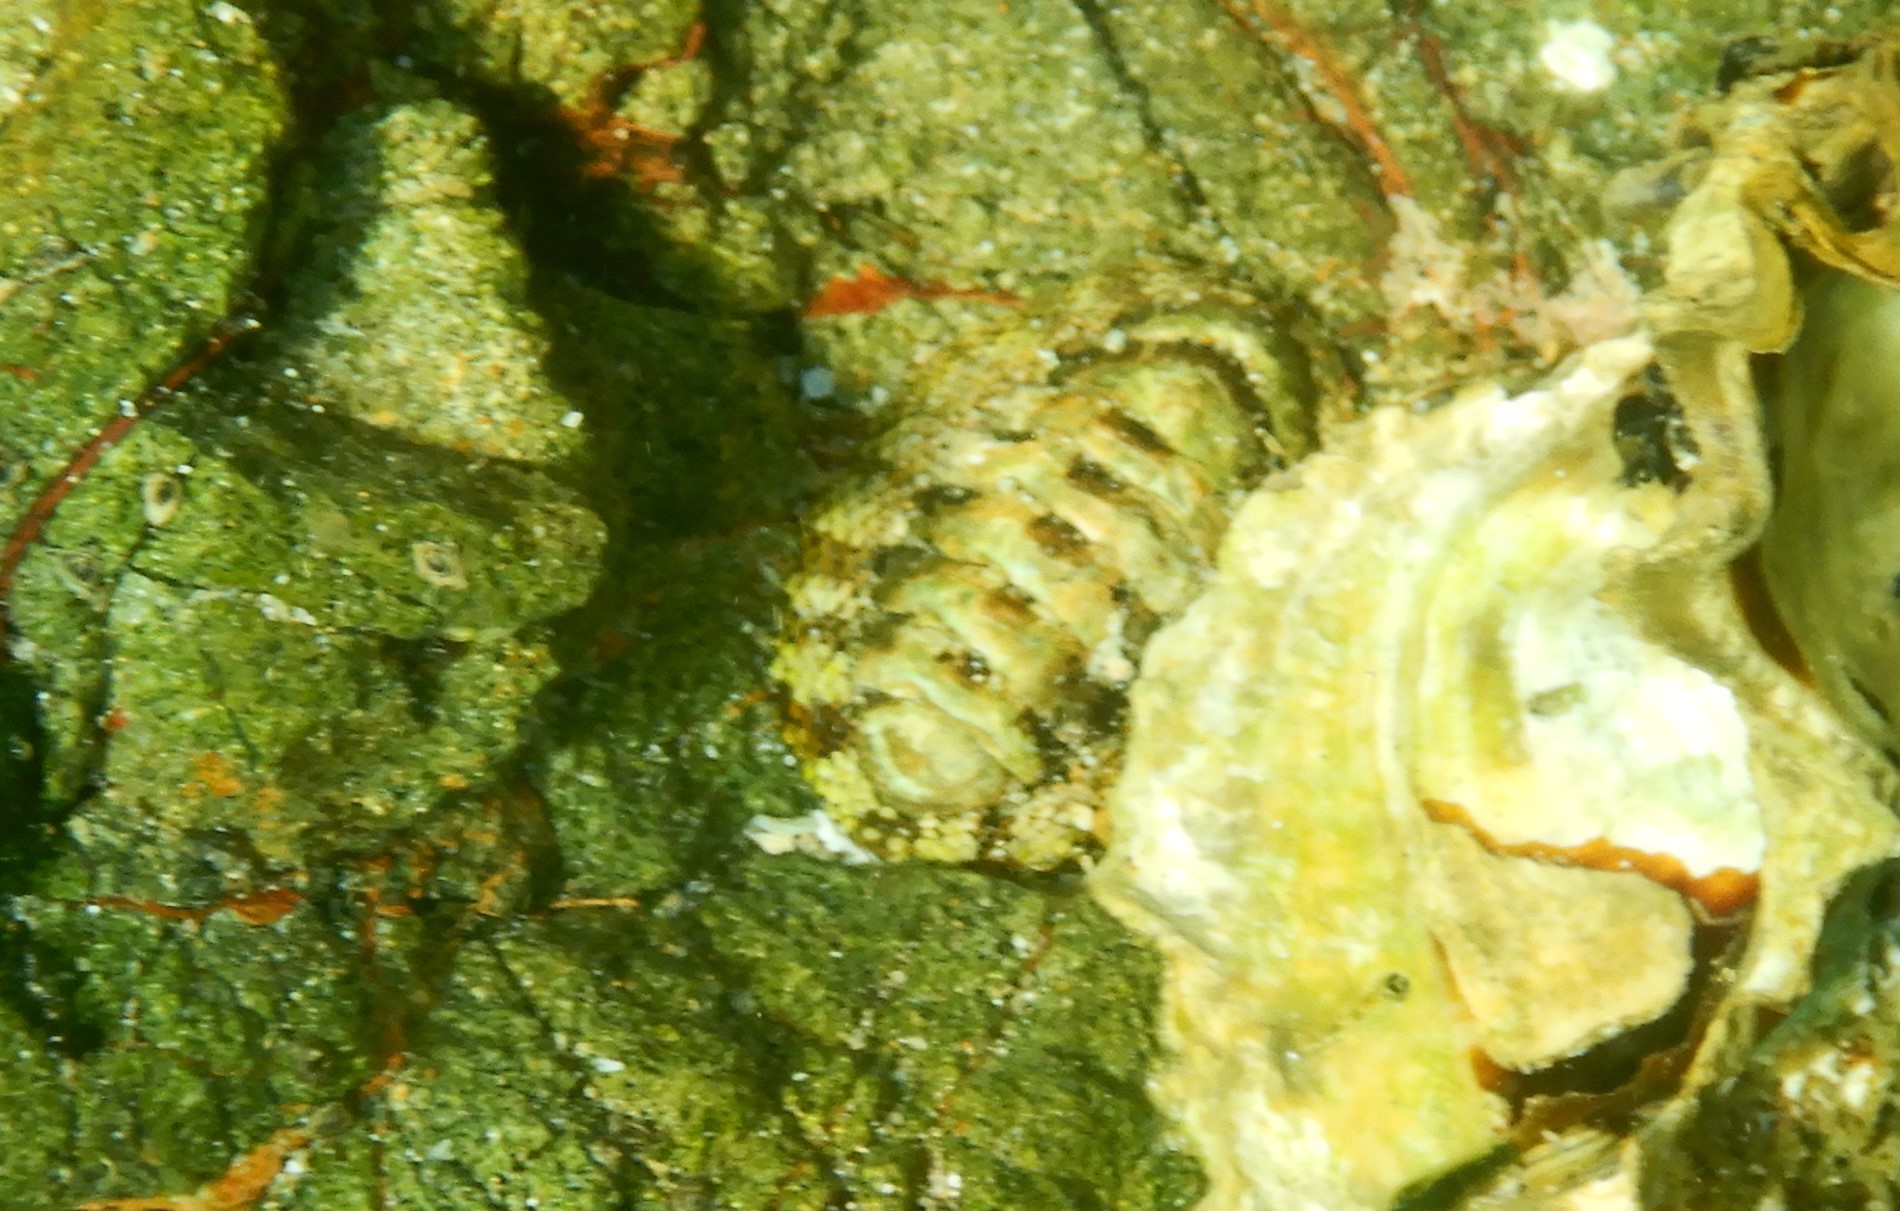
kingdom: Animalia
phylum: Mollusca
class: Polyplacophora
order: Chitonida
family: Chitonidae
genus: Sypharochiton
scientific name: Sypharochiton pelliserpentis
